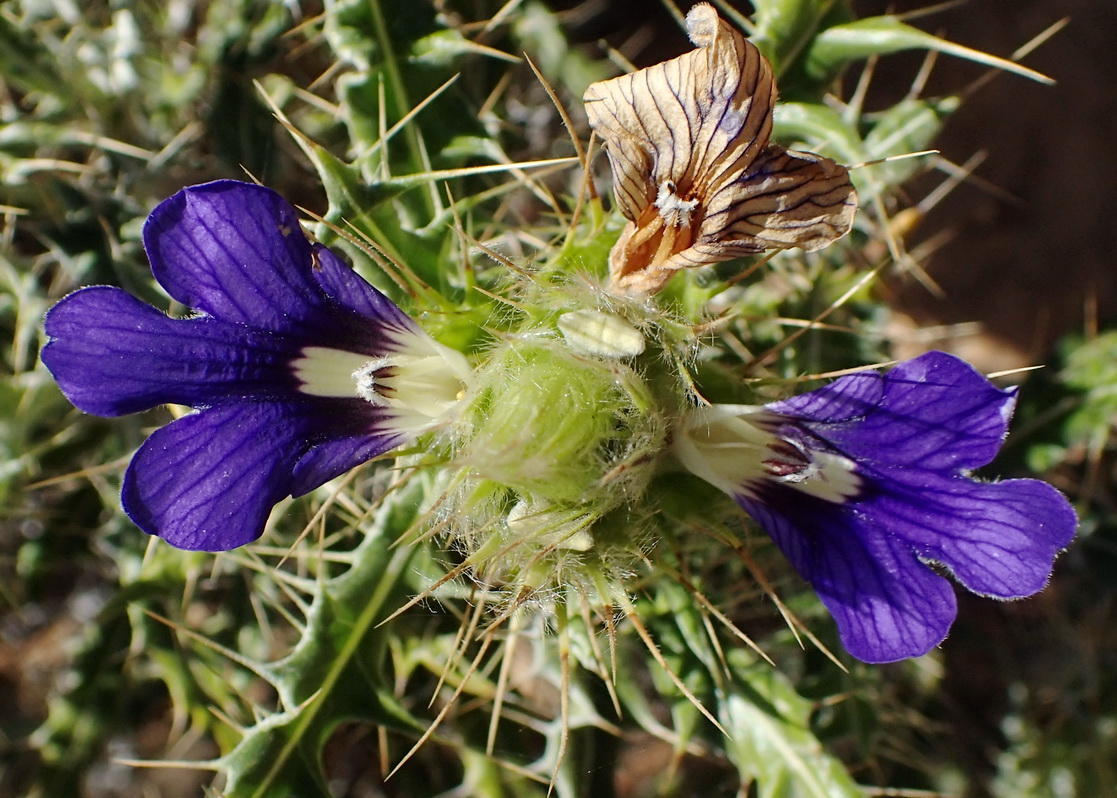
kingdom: Plantae
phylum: Tracheophyta
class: Magnoliopsida
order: Lamiales
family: Acanthaceae
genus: Acanthopsis
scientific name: Acanthopsis horrida
